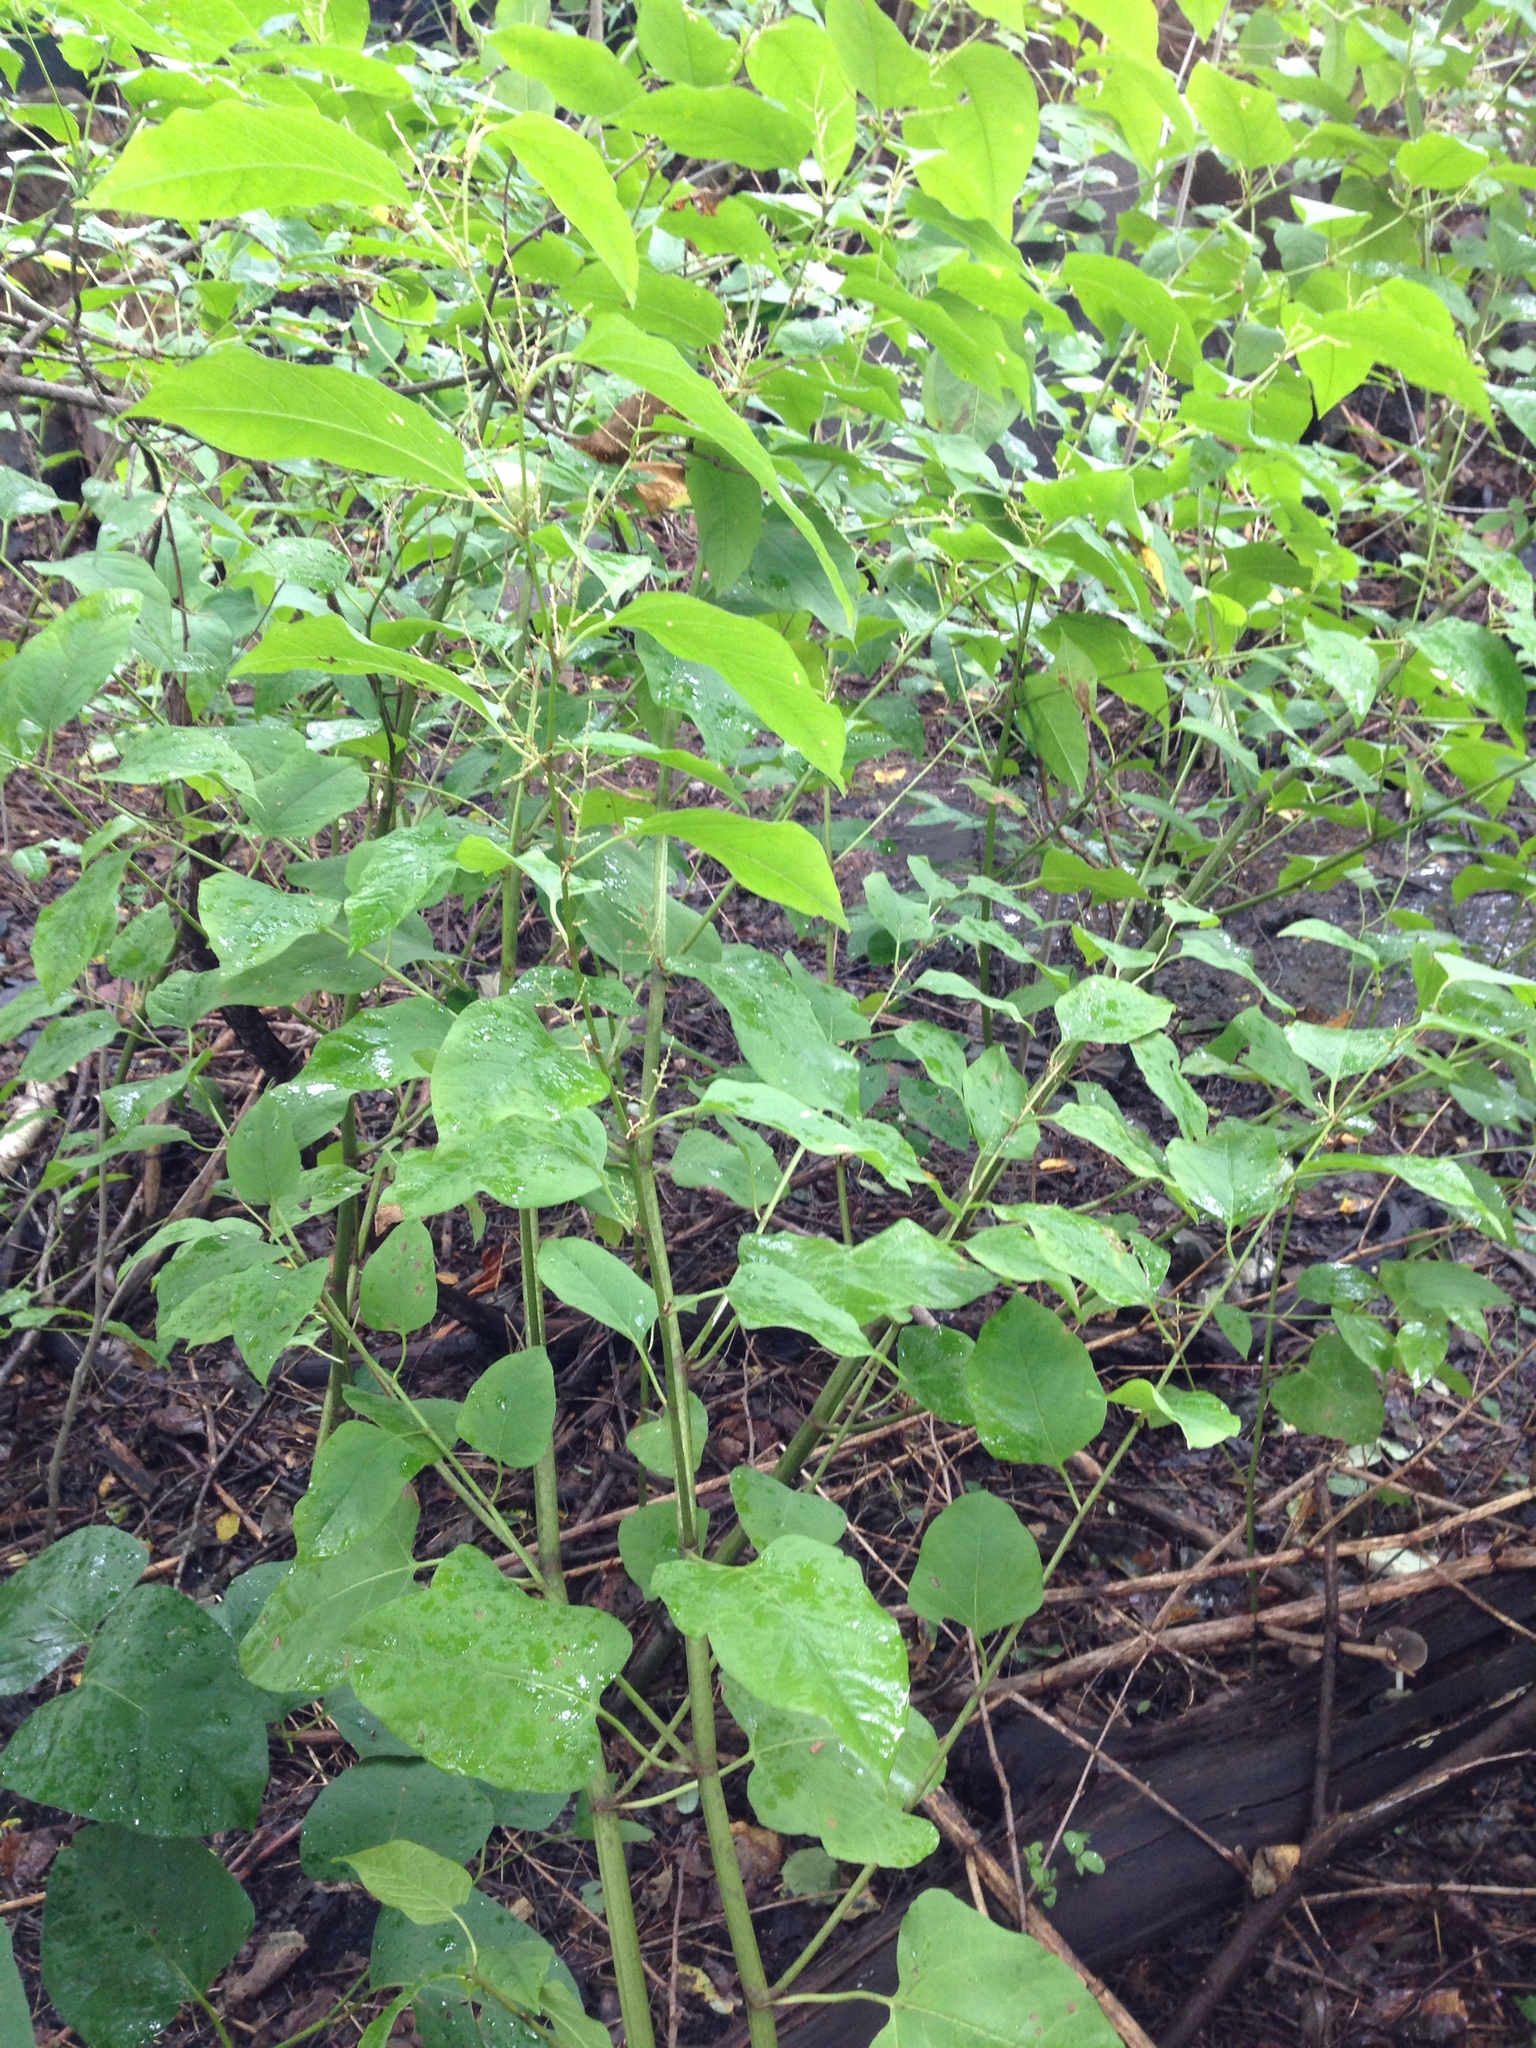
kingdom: Plantae
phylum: Tracheophyta
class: Magnoliopsida
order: Caryophyllales
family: Polygonaceae
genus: Reynoutria
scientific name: Reynoutria japonica
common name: Japanese knotweed
